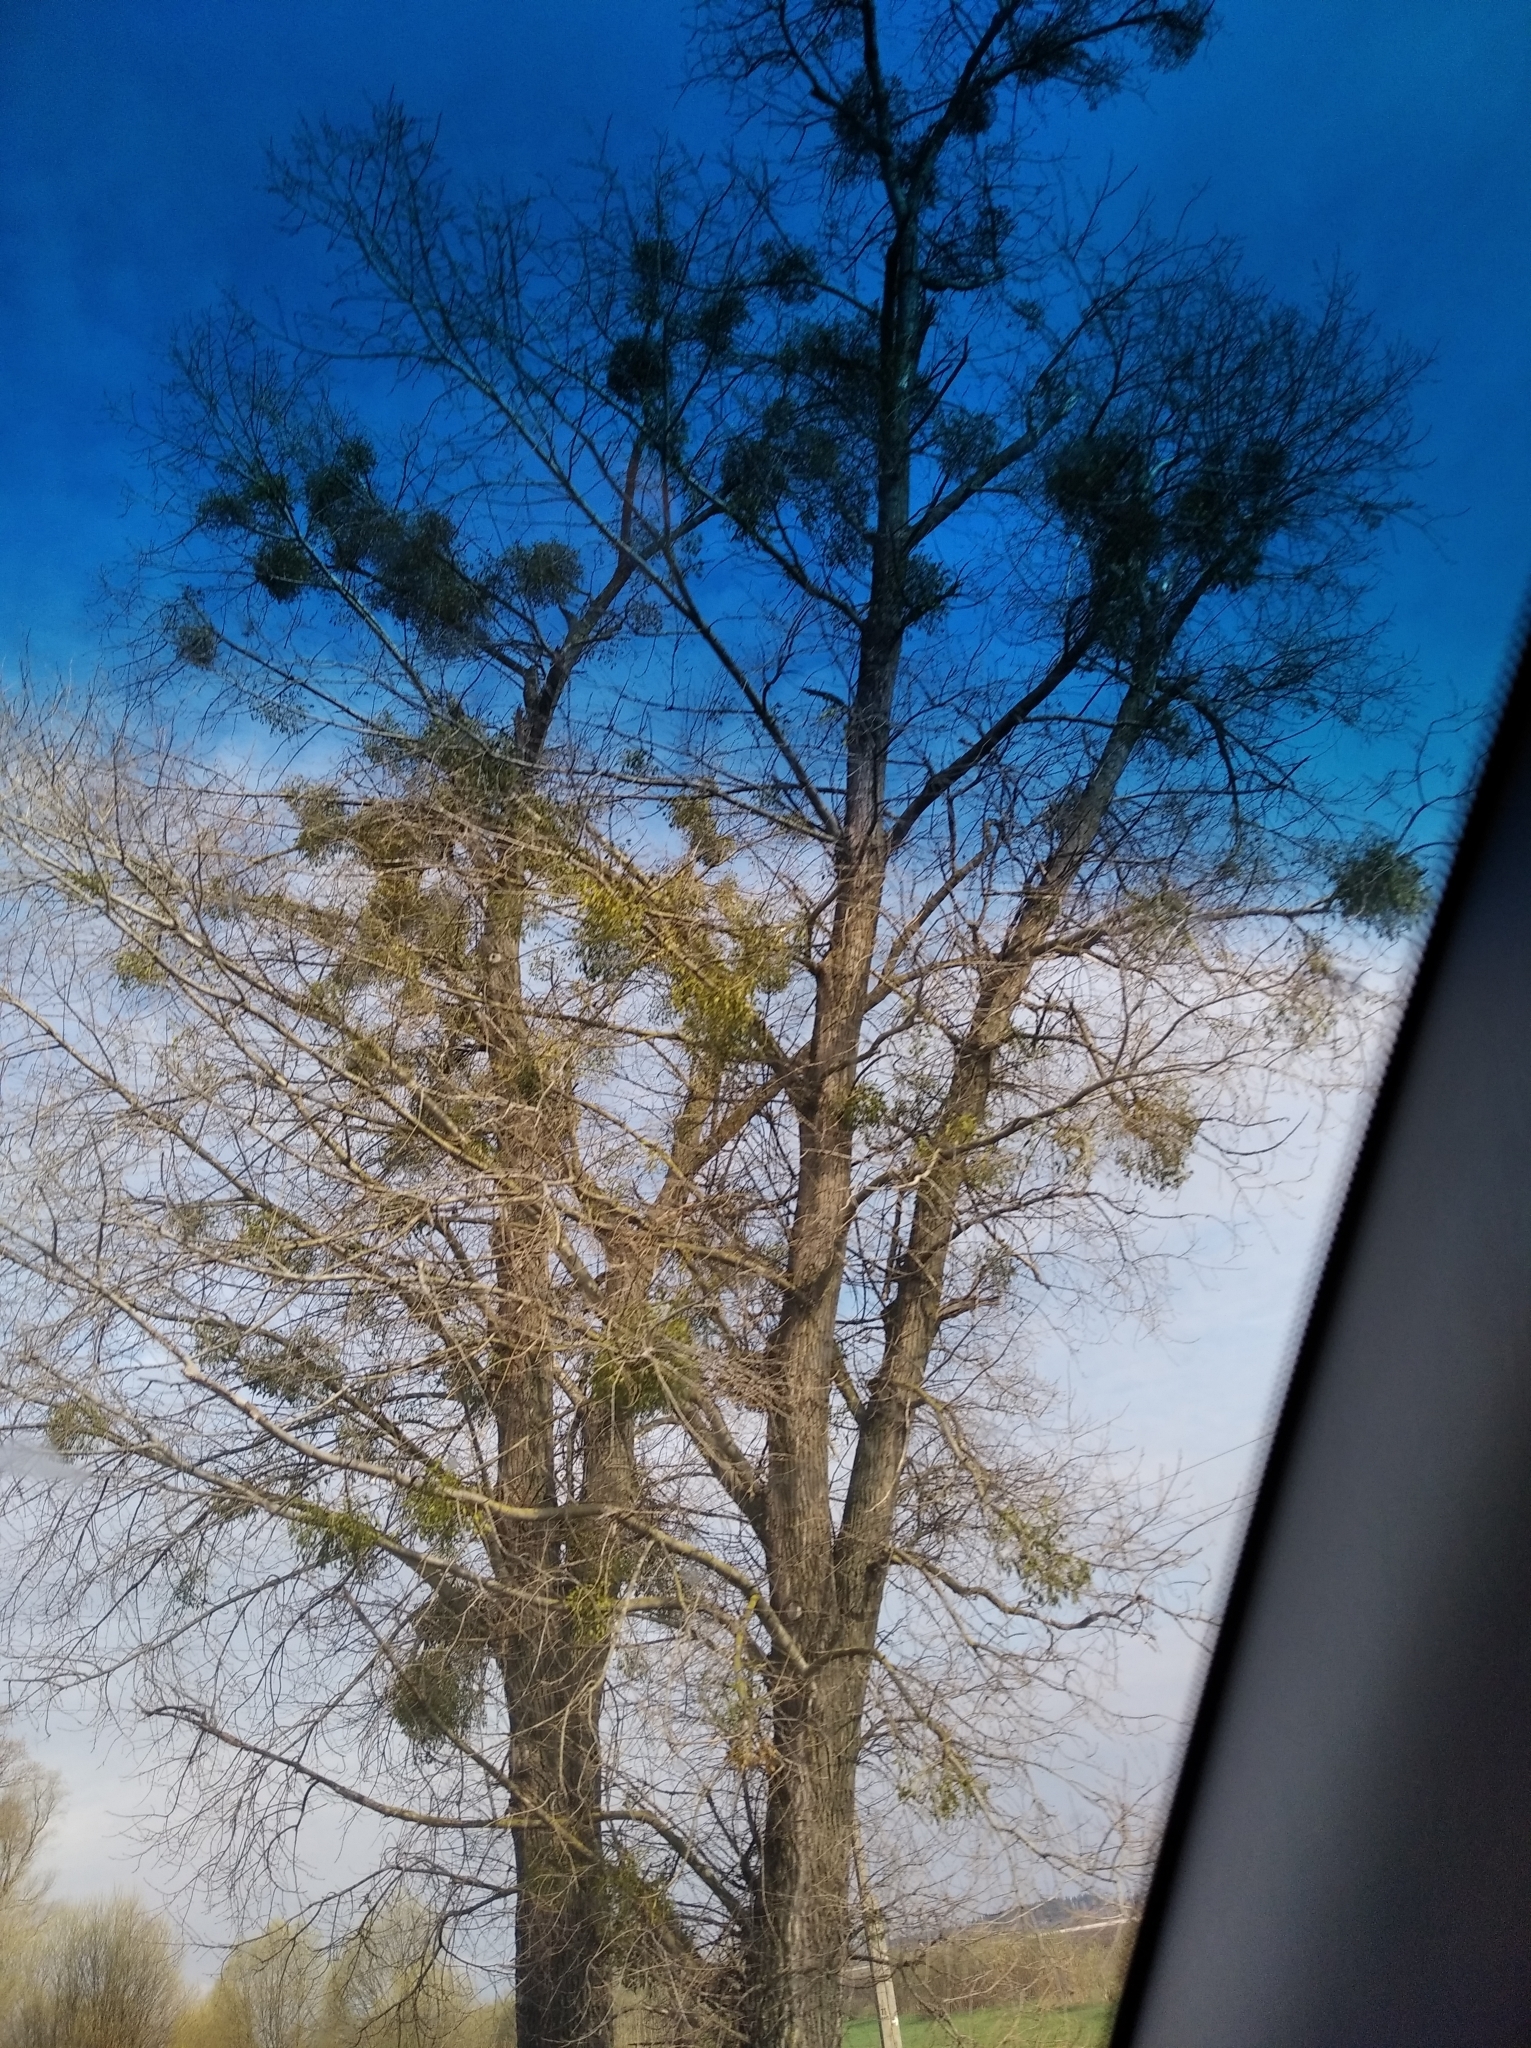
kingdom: Plantae
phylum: Tracheophyta
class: Magnoliopsida
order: Santalales
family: Viscaceae
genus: Viscum
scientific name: Viscum album
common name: Mistletoe
